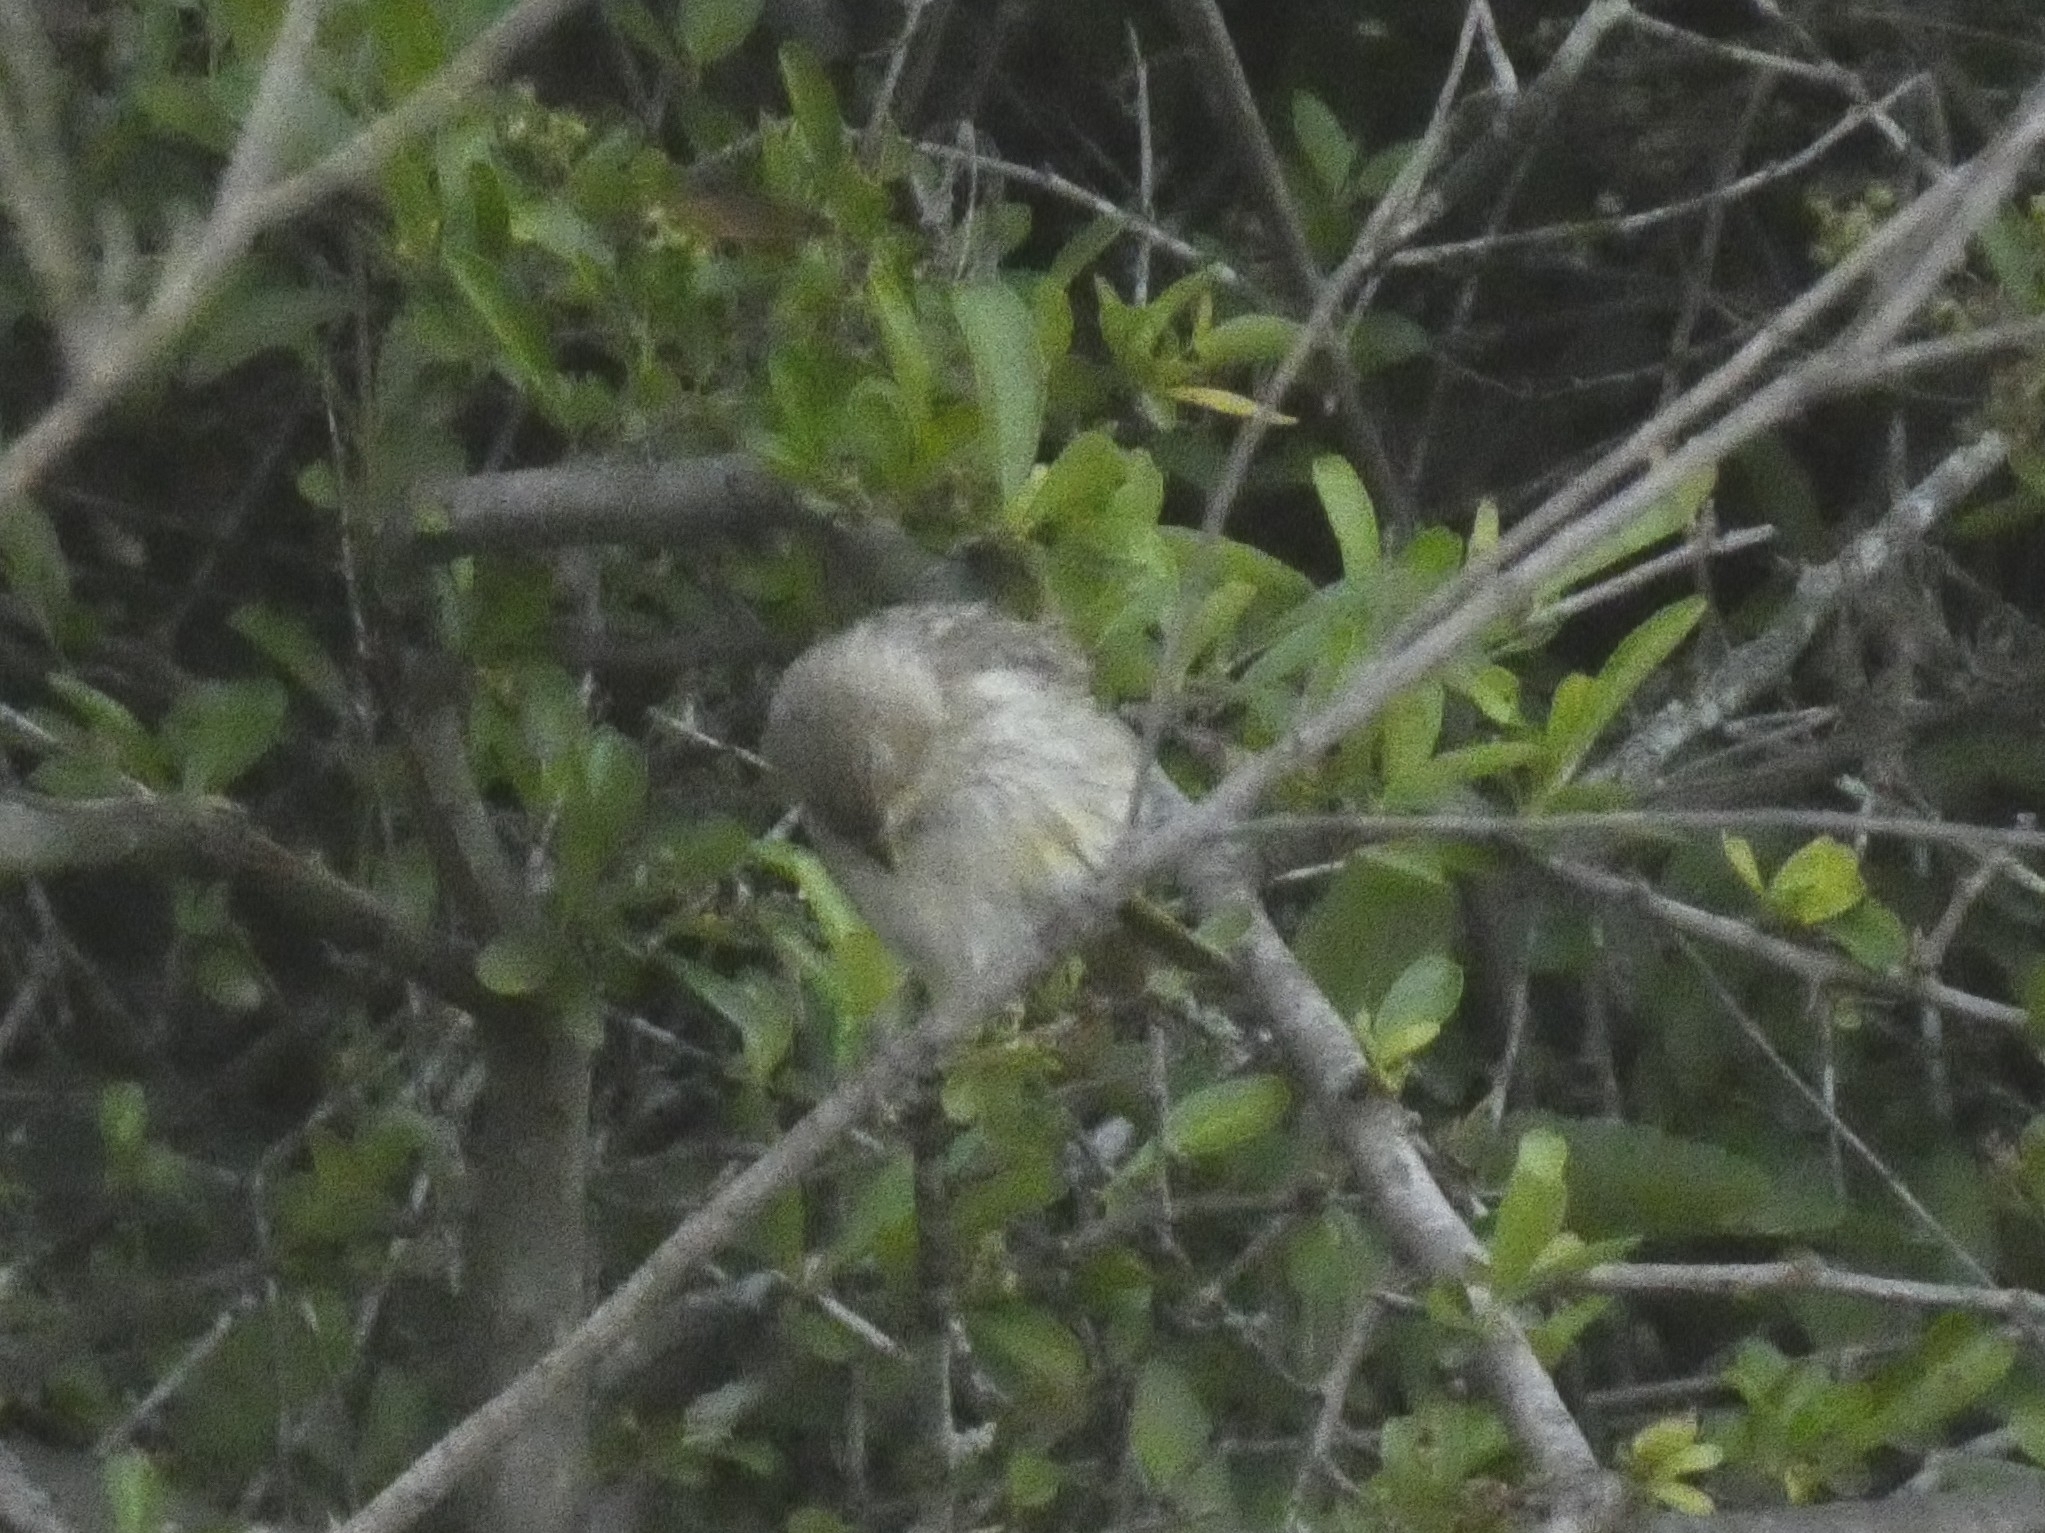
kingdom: Animalia
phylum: Chordata
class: Aves
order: Passeriformes
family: Thraupidae
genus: Sicalis
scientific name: Sicalis flaveola
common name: Saffron finch
